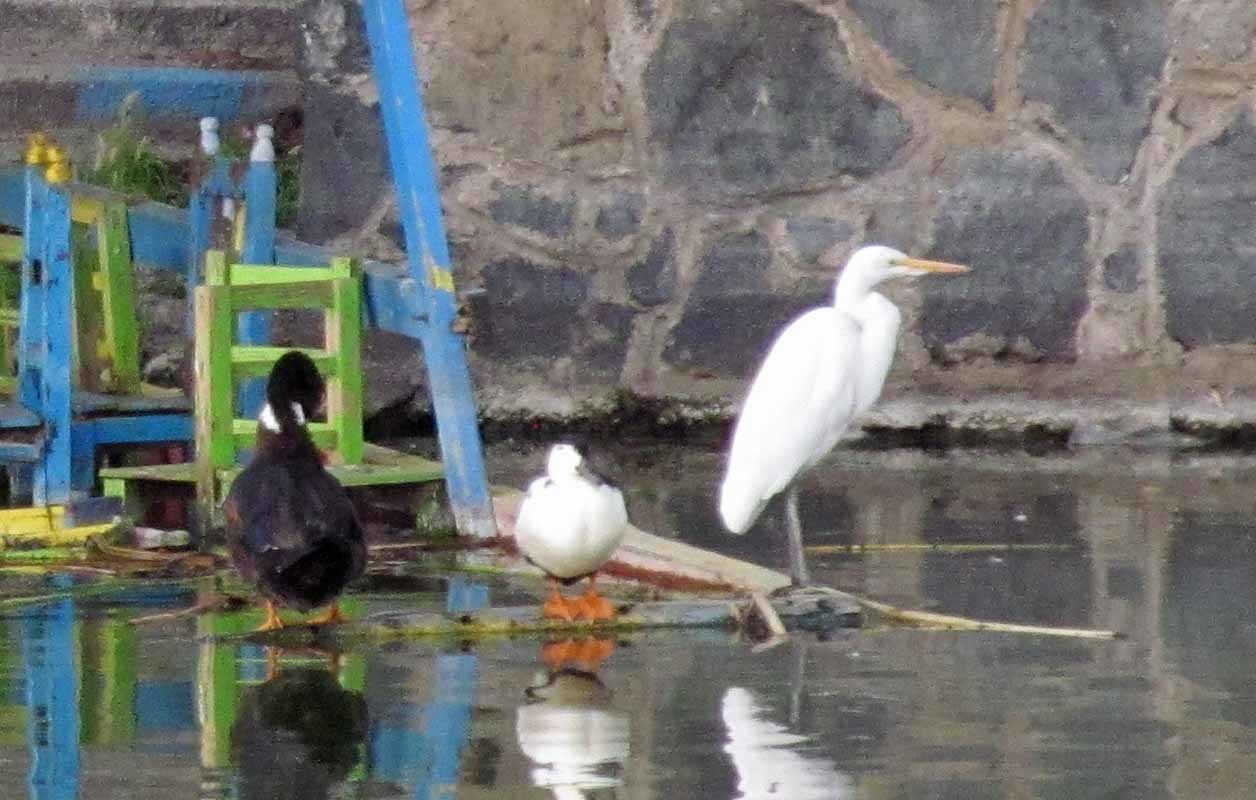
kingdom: Animalia
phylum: Chordata
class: Aves
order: Pelecaniformes
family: Ardeidae
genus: Ardea
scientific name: Ardea alba
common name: Great egret
